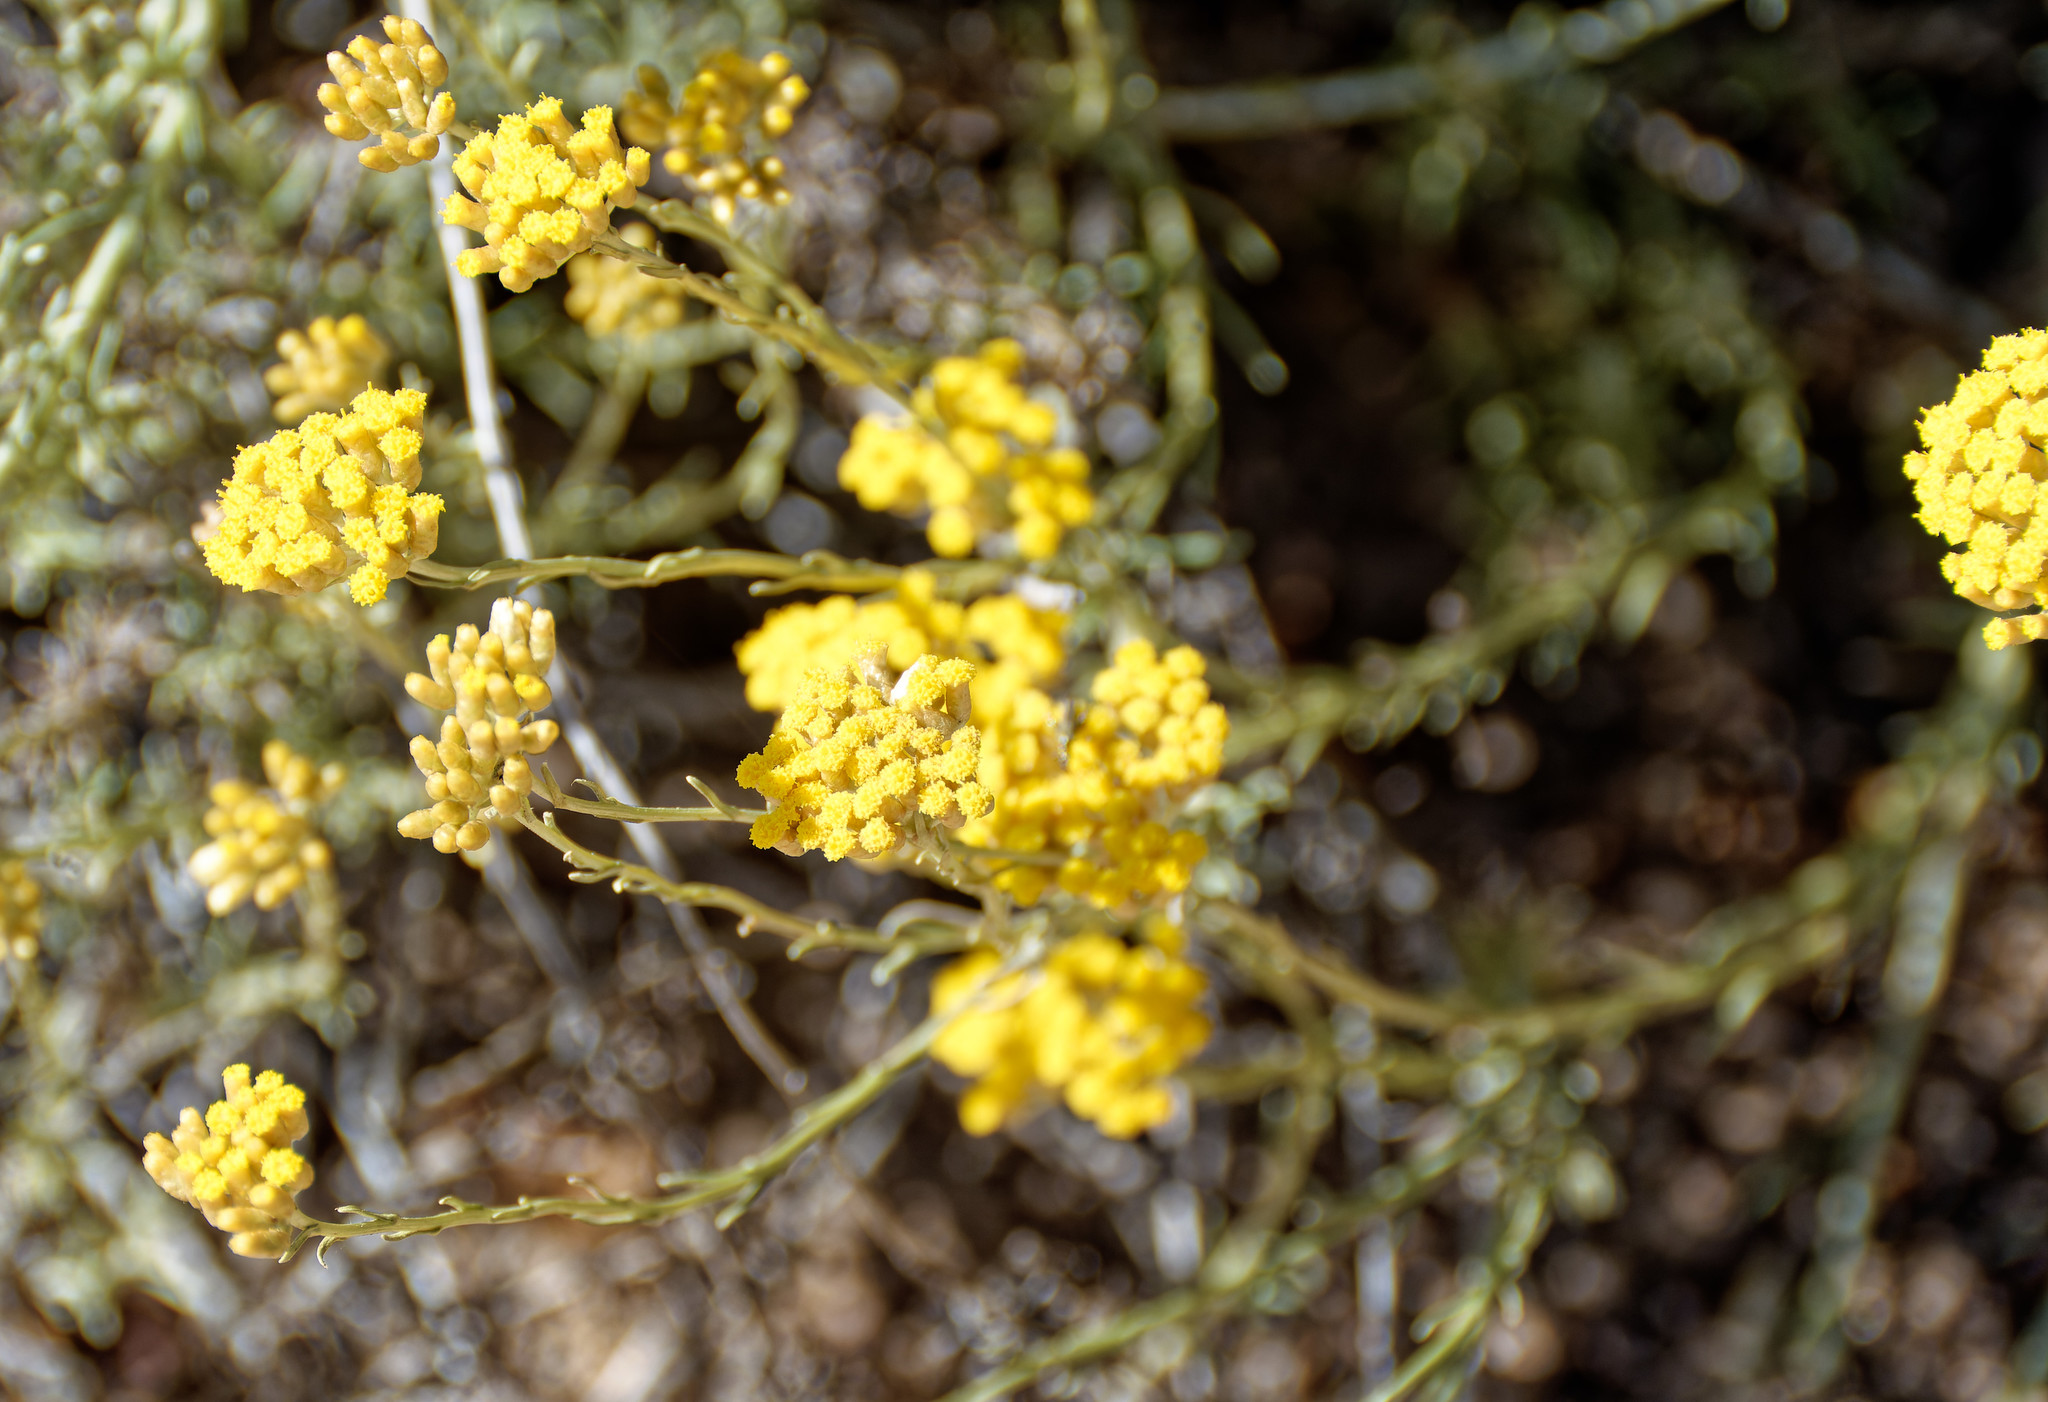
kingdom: Plantae
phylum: Tracheophyta
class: Magnoliopsida
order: Asterales
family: Asteraceae
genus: Helichrysum
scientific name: Helichrysum italicum
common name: Curryplant
